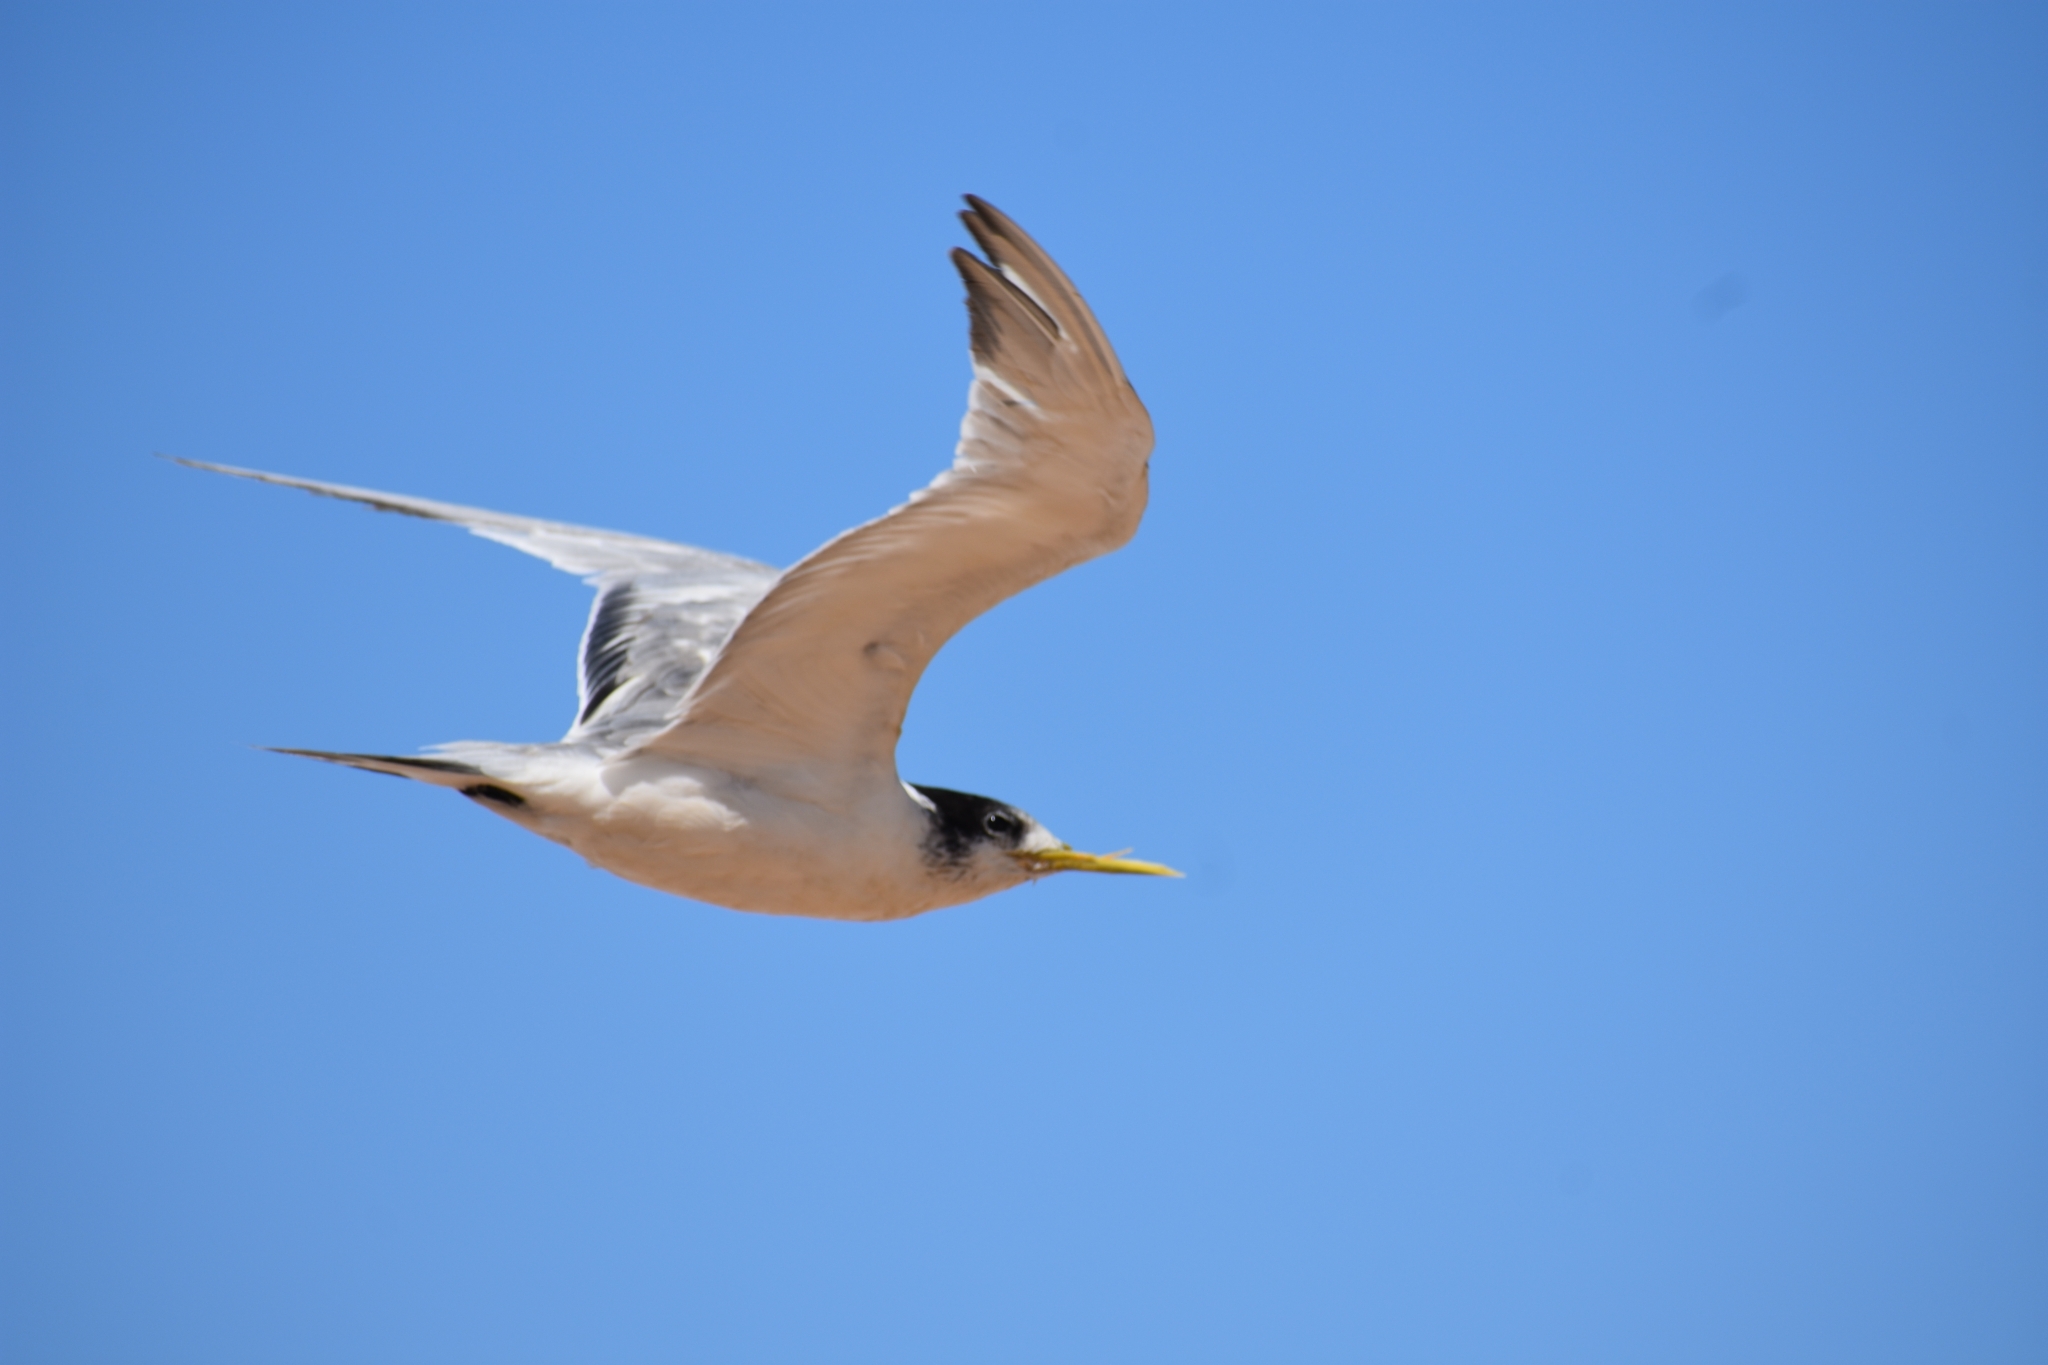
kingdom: Animalia
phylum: Chordata
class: Aves
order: Charadriiformes
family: Laridae
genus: Thalasseus
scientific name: Thalasseus bergii
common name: Greater crested tern
